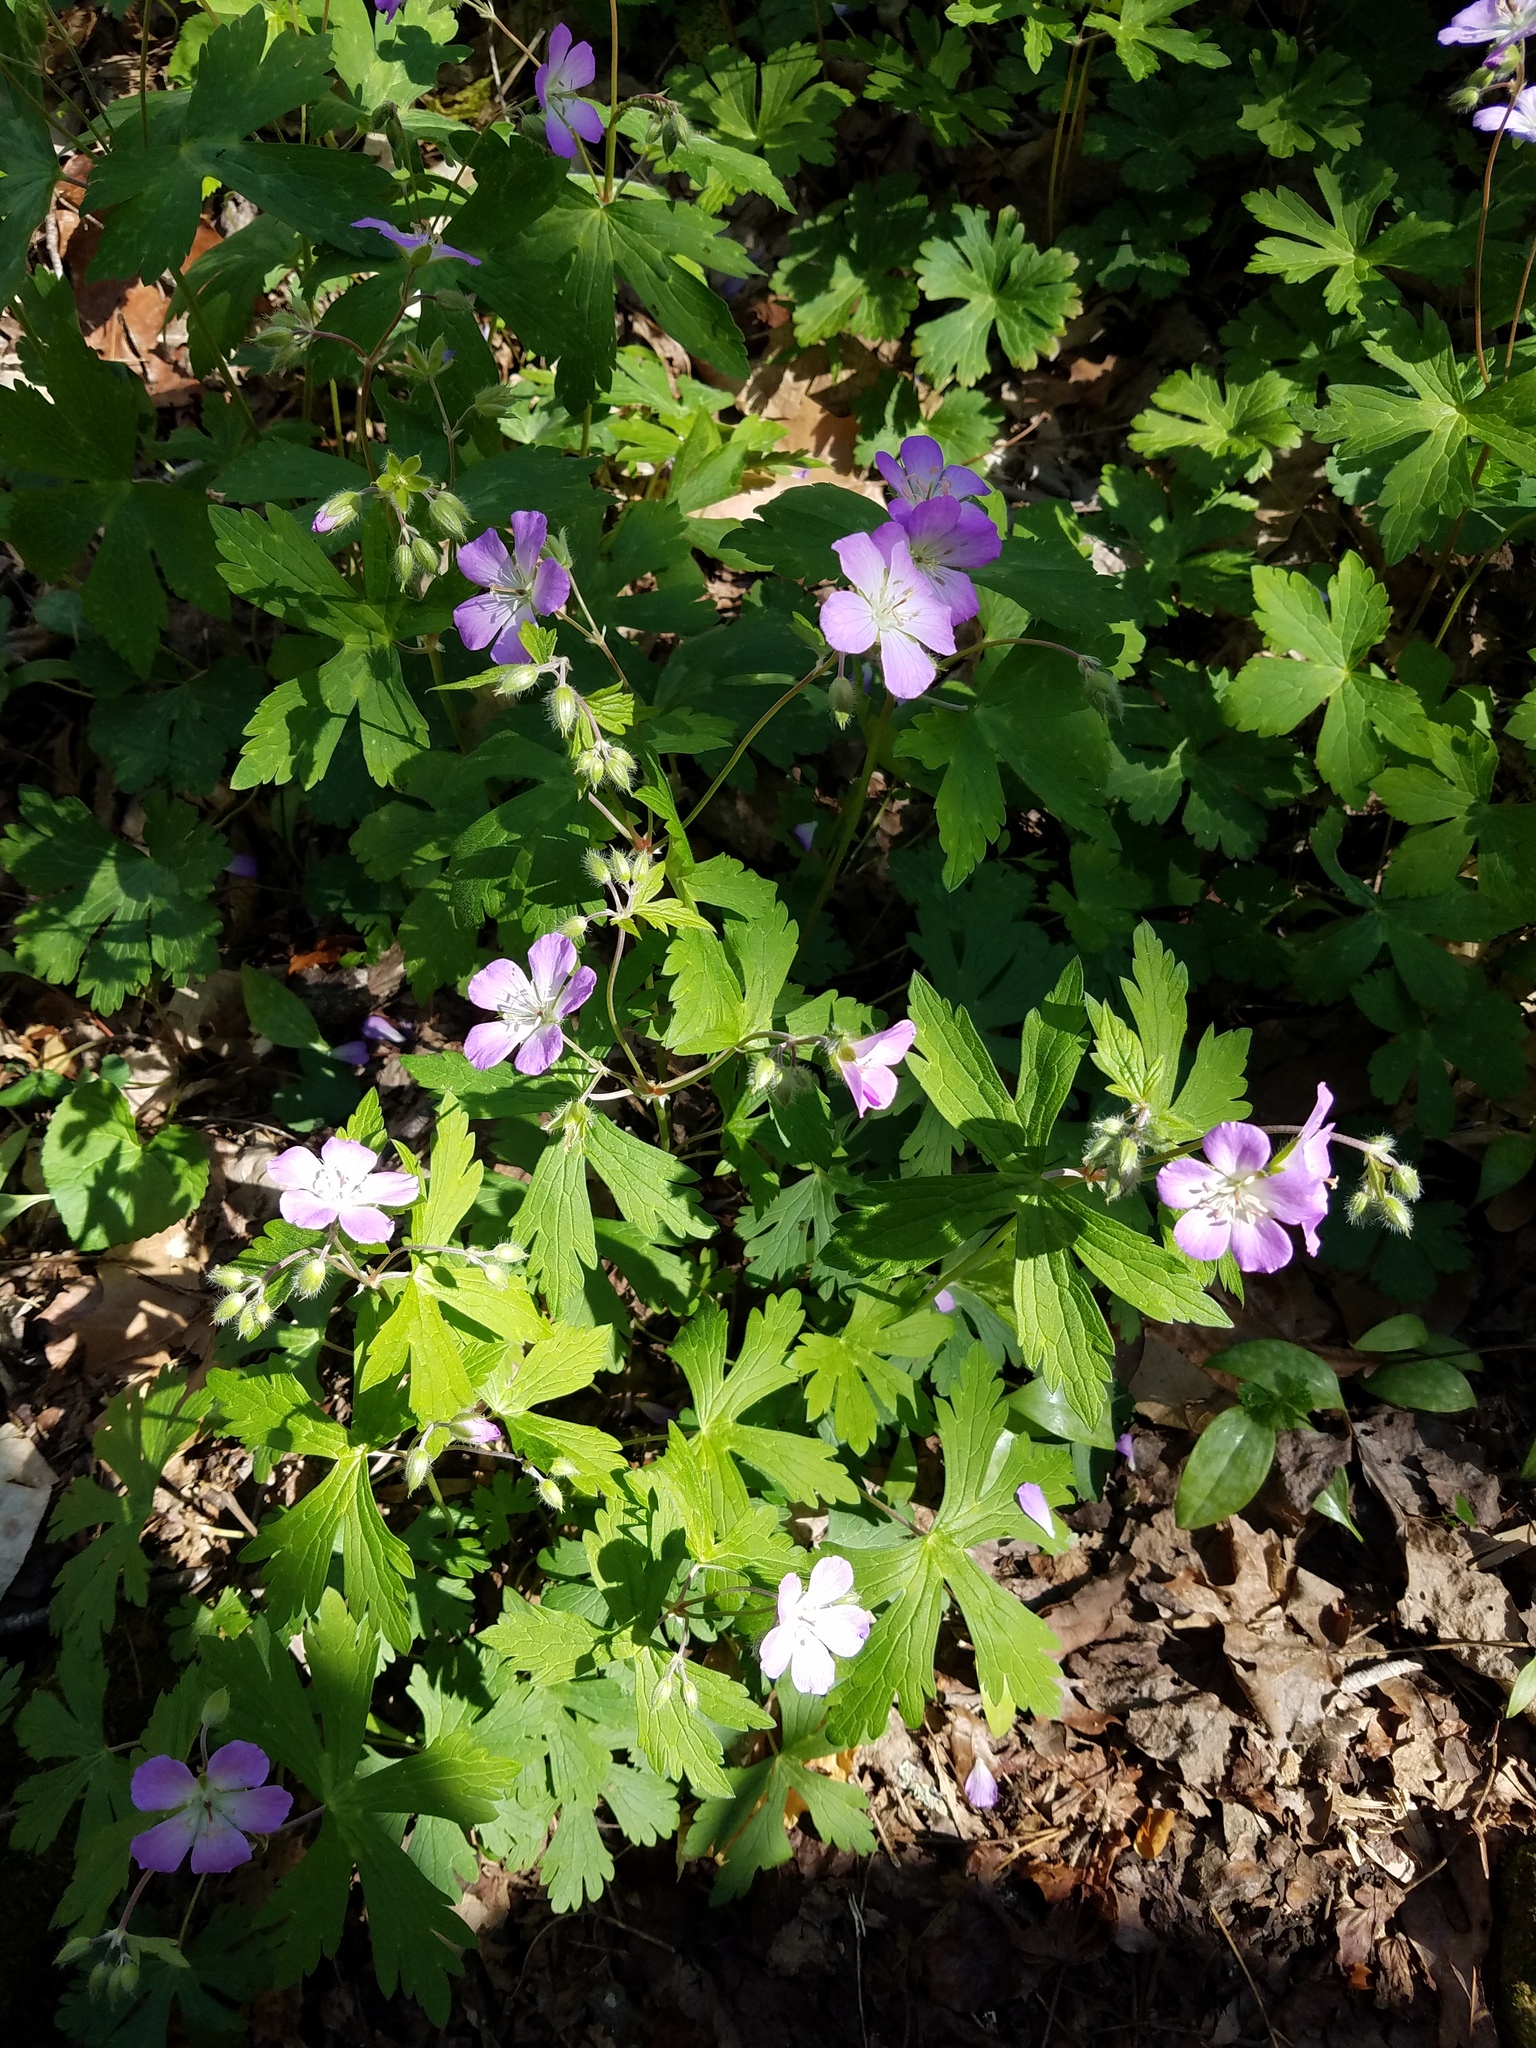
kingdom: Plantae
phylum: Tracheophyta
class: Magnoliopsida
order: Geraniales
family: Geraniaceae
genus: Geranium
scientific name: Geranium maculatum
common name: Spotted geranium
